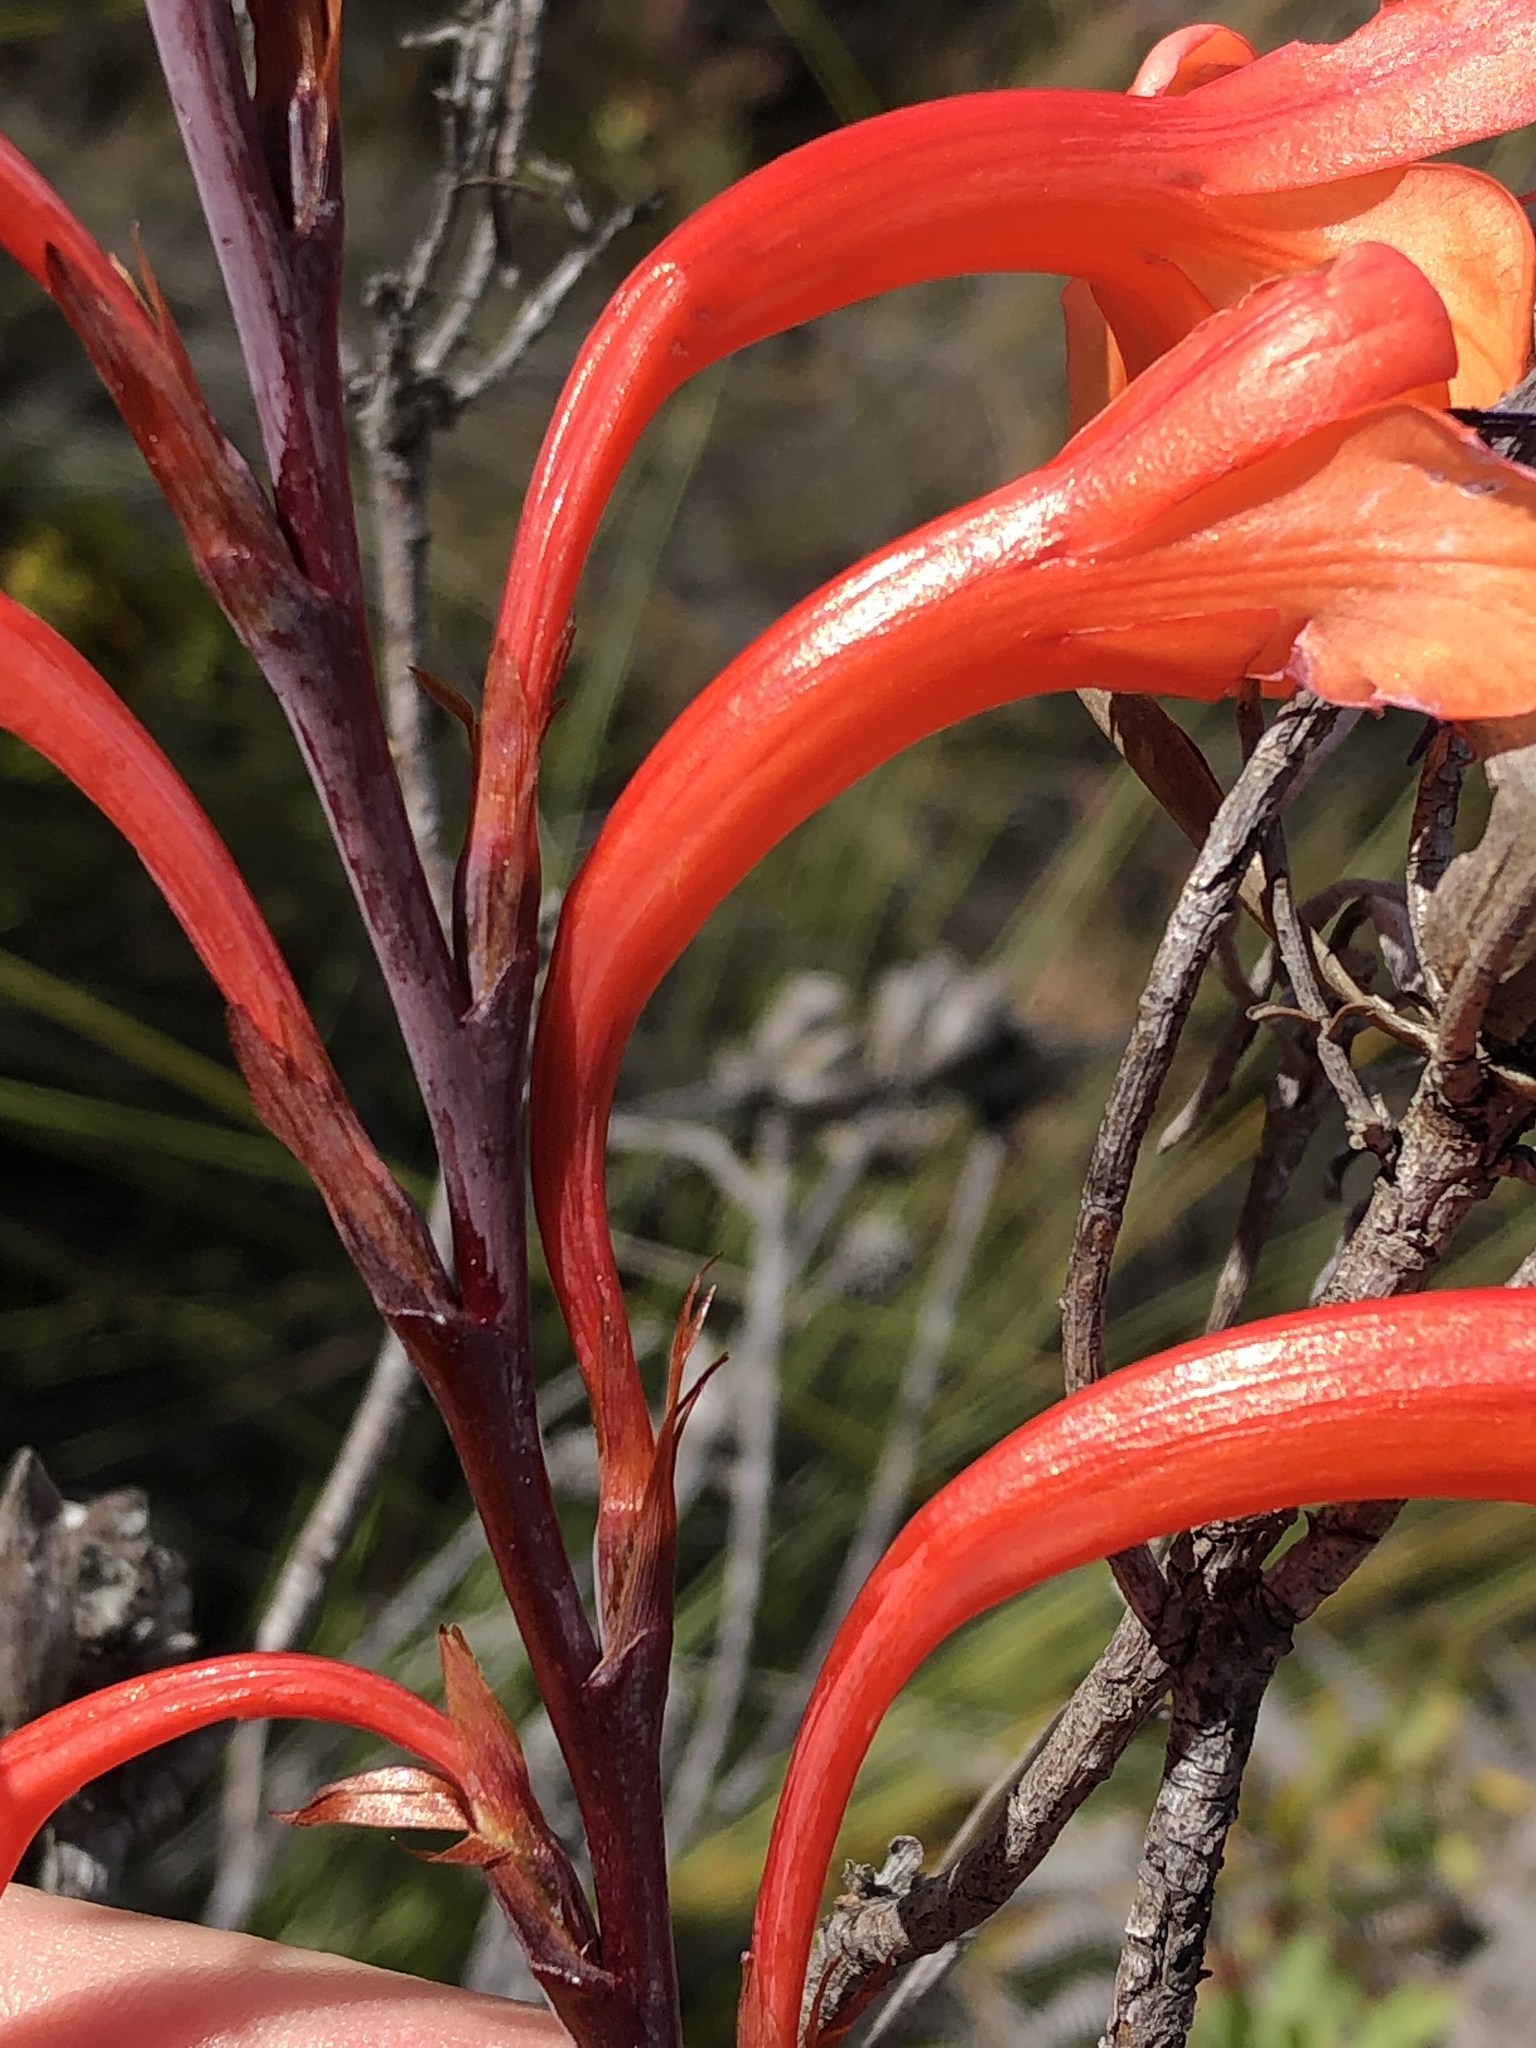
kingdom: Plantae
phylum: Tracheophyta
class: Liliopsida
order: Asparagales
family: Iridaceae
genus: Watsonia
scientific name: Watsonia fourcadei
